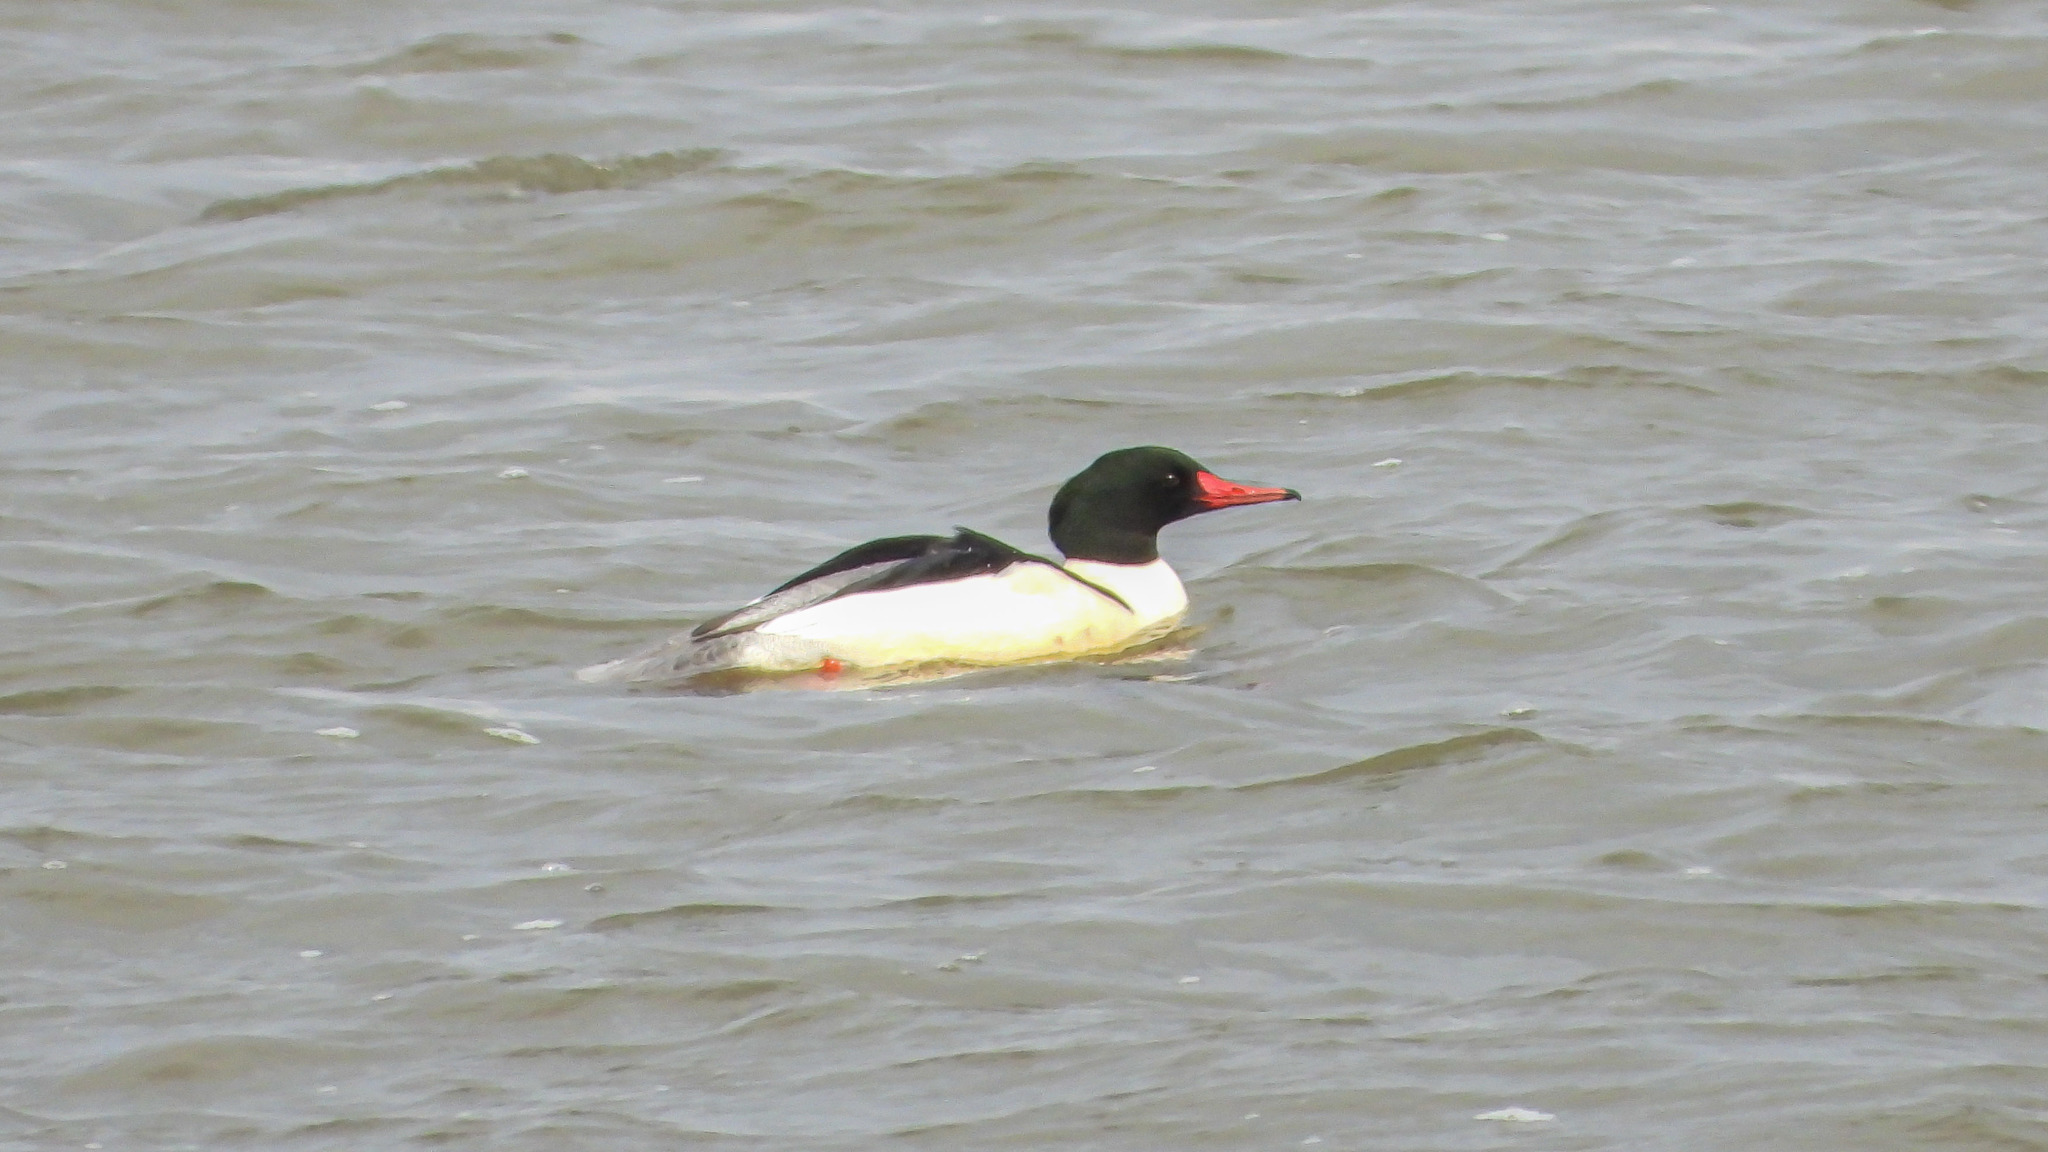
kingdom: Animalia
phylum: Chordata
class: Aves
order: Anseriformes
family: Anatidae
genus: Mergus
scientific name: Mergus merganser
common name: Common merganser
